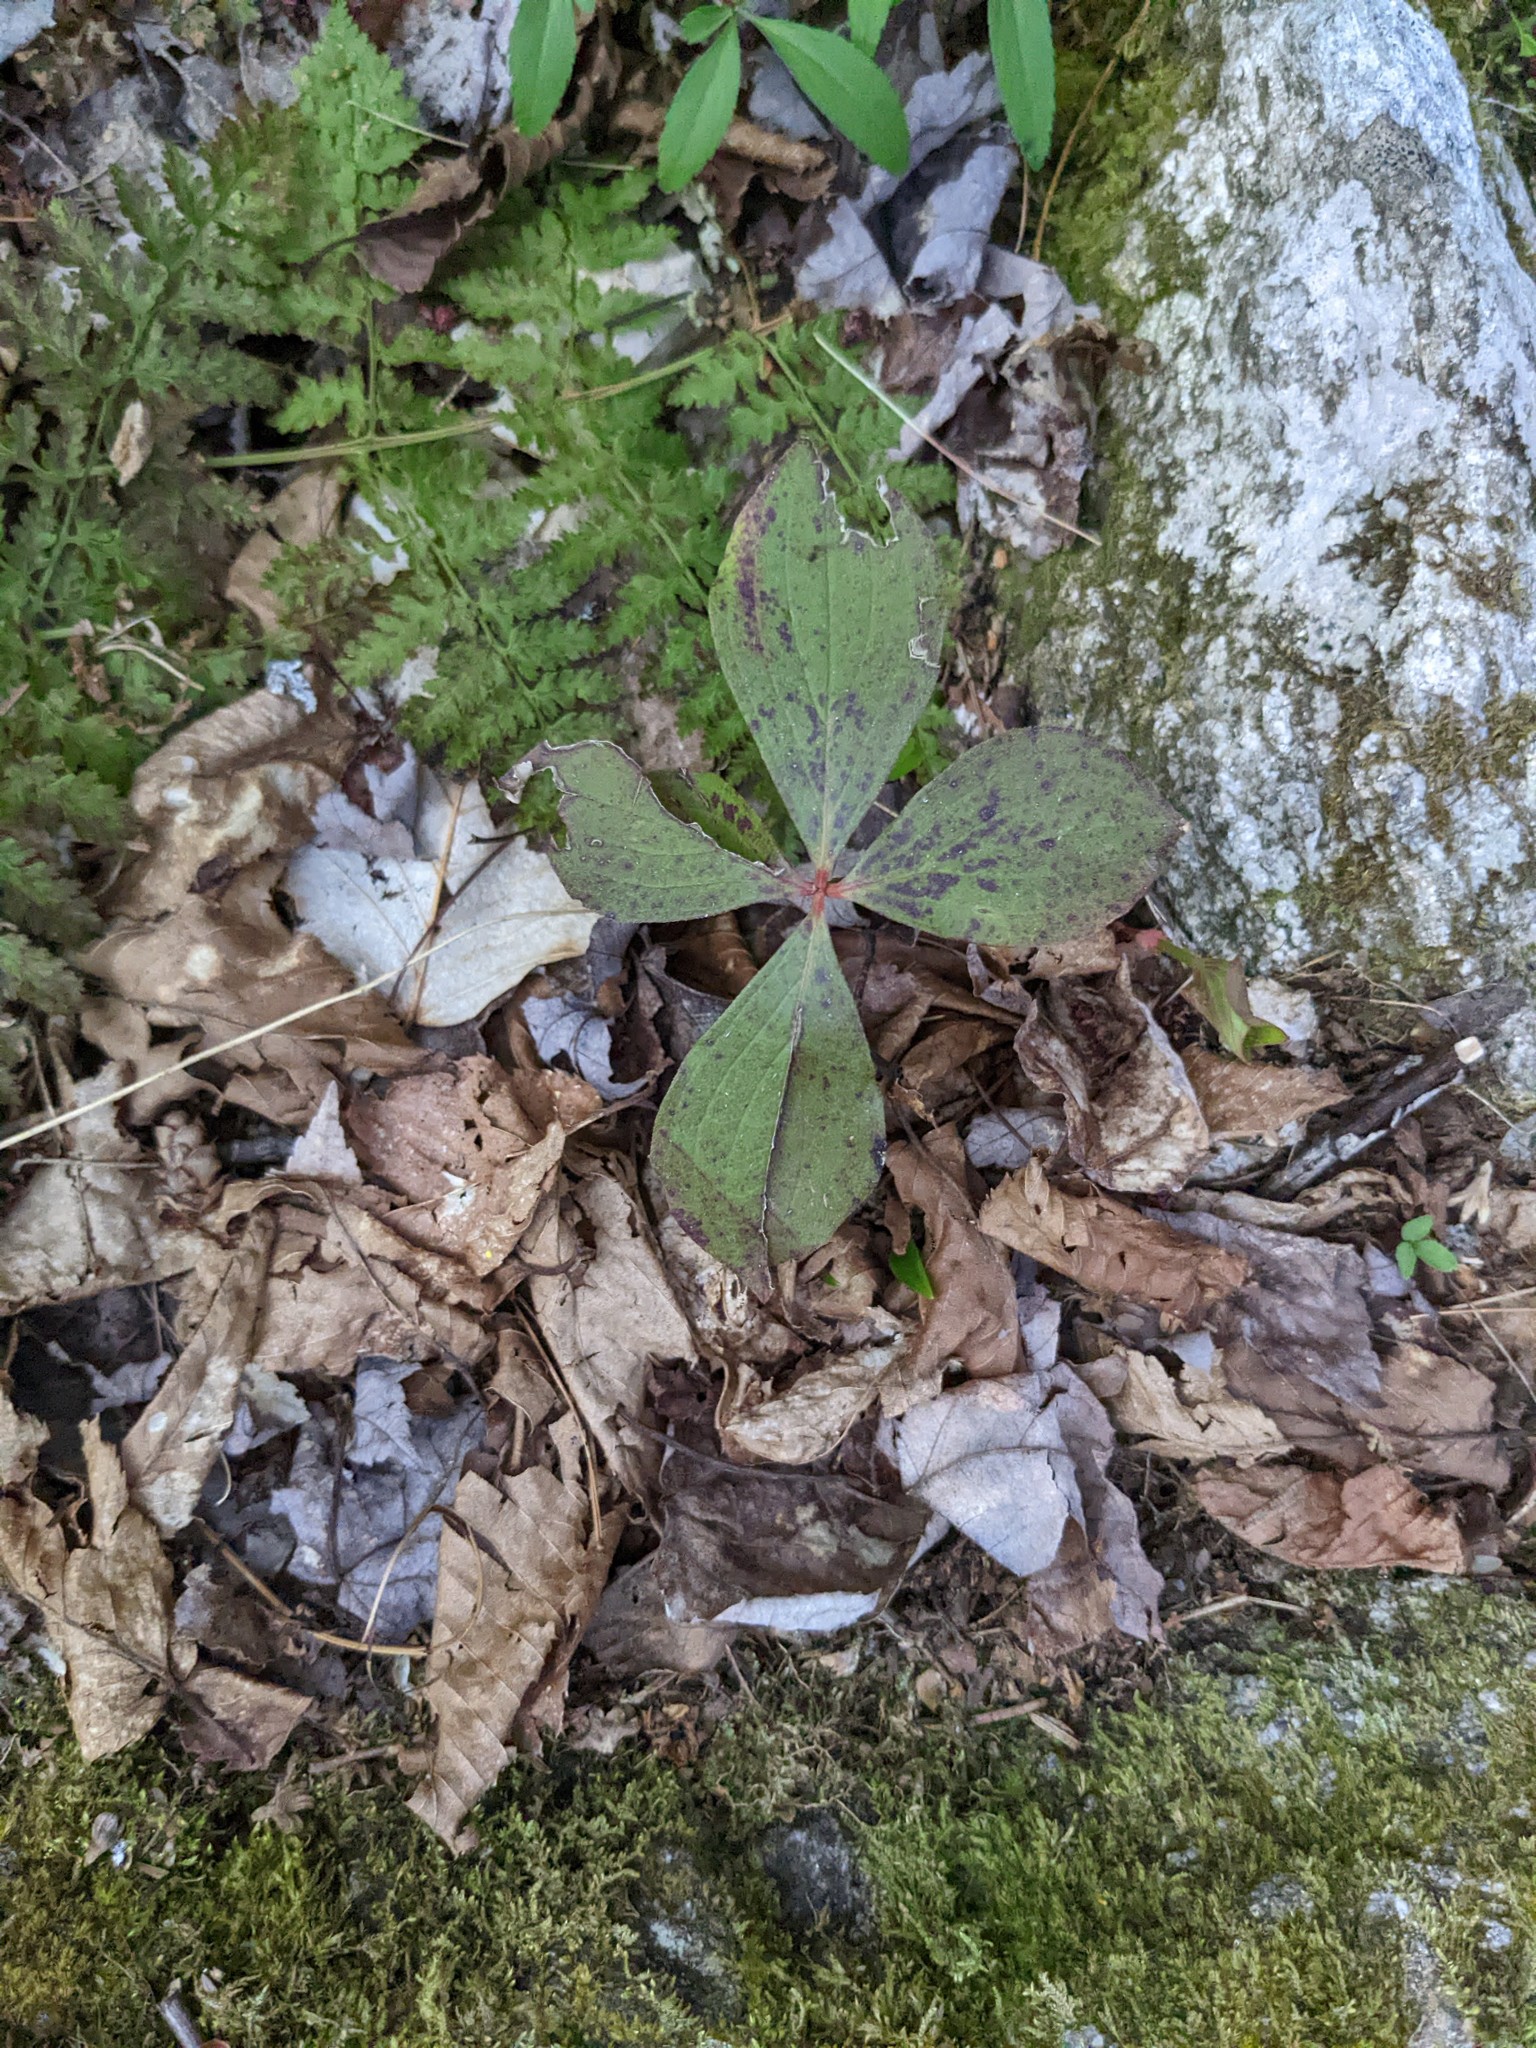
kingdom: Plantae
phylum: Tracheophyta
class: Magnoliopsida
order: Cornales
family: Cornaceae
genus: Cornus
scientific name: Cornus canadensis
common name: Creeping dogwood
